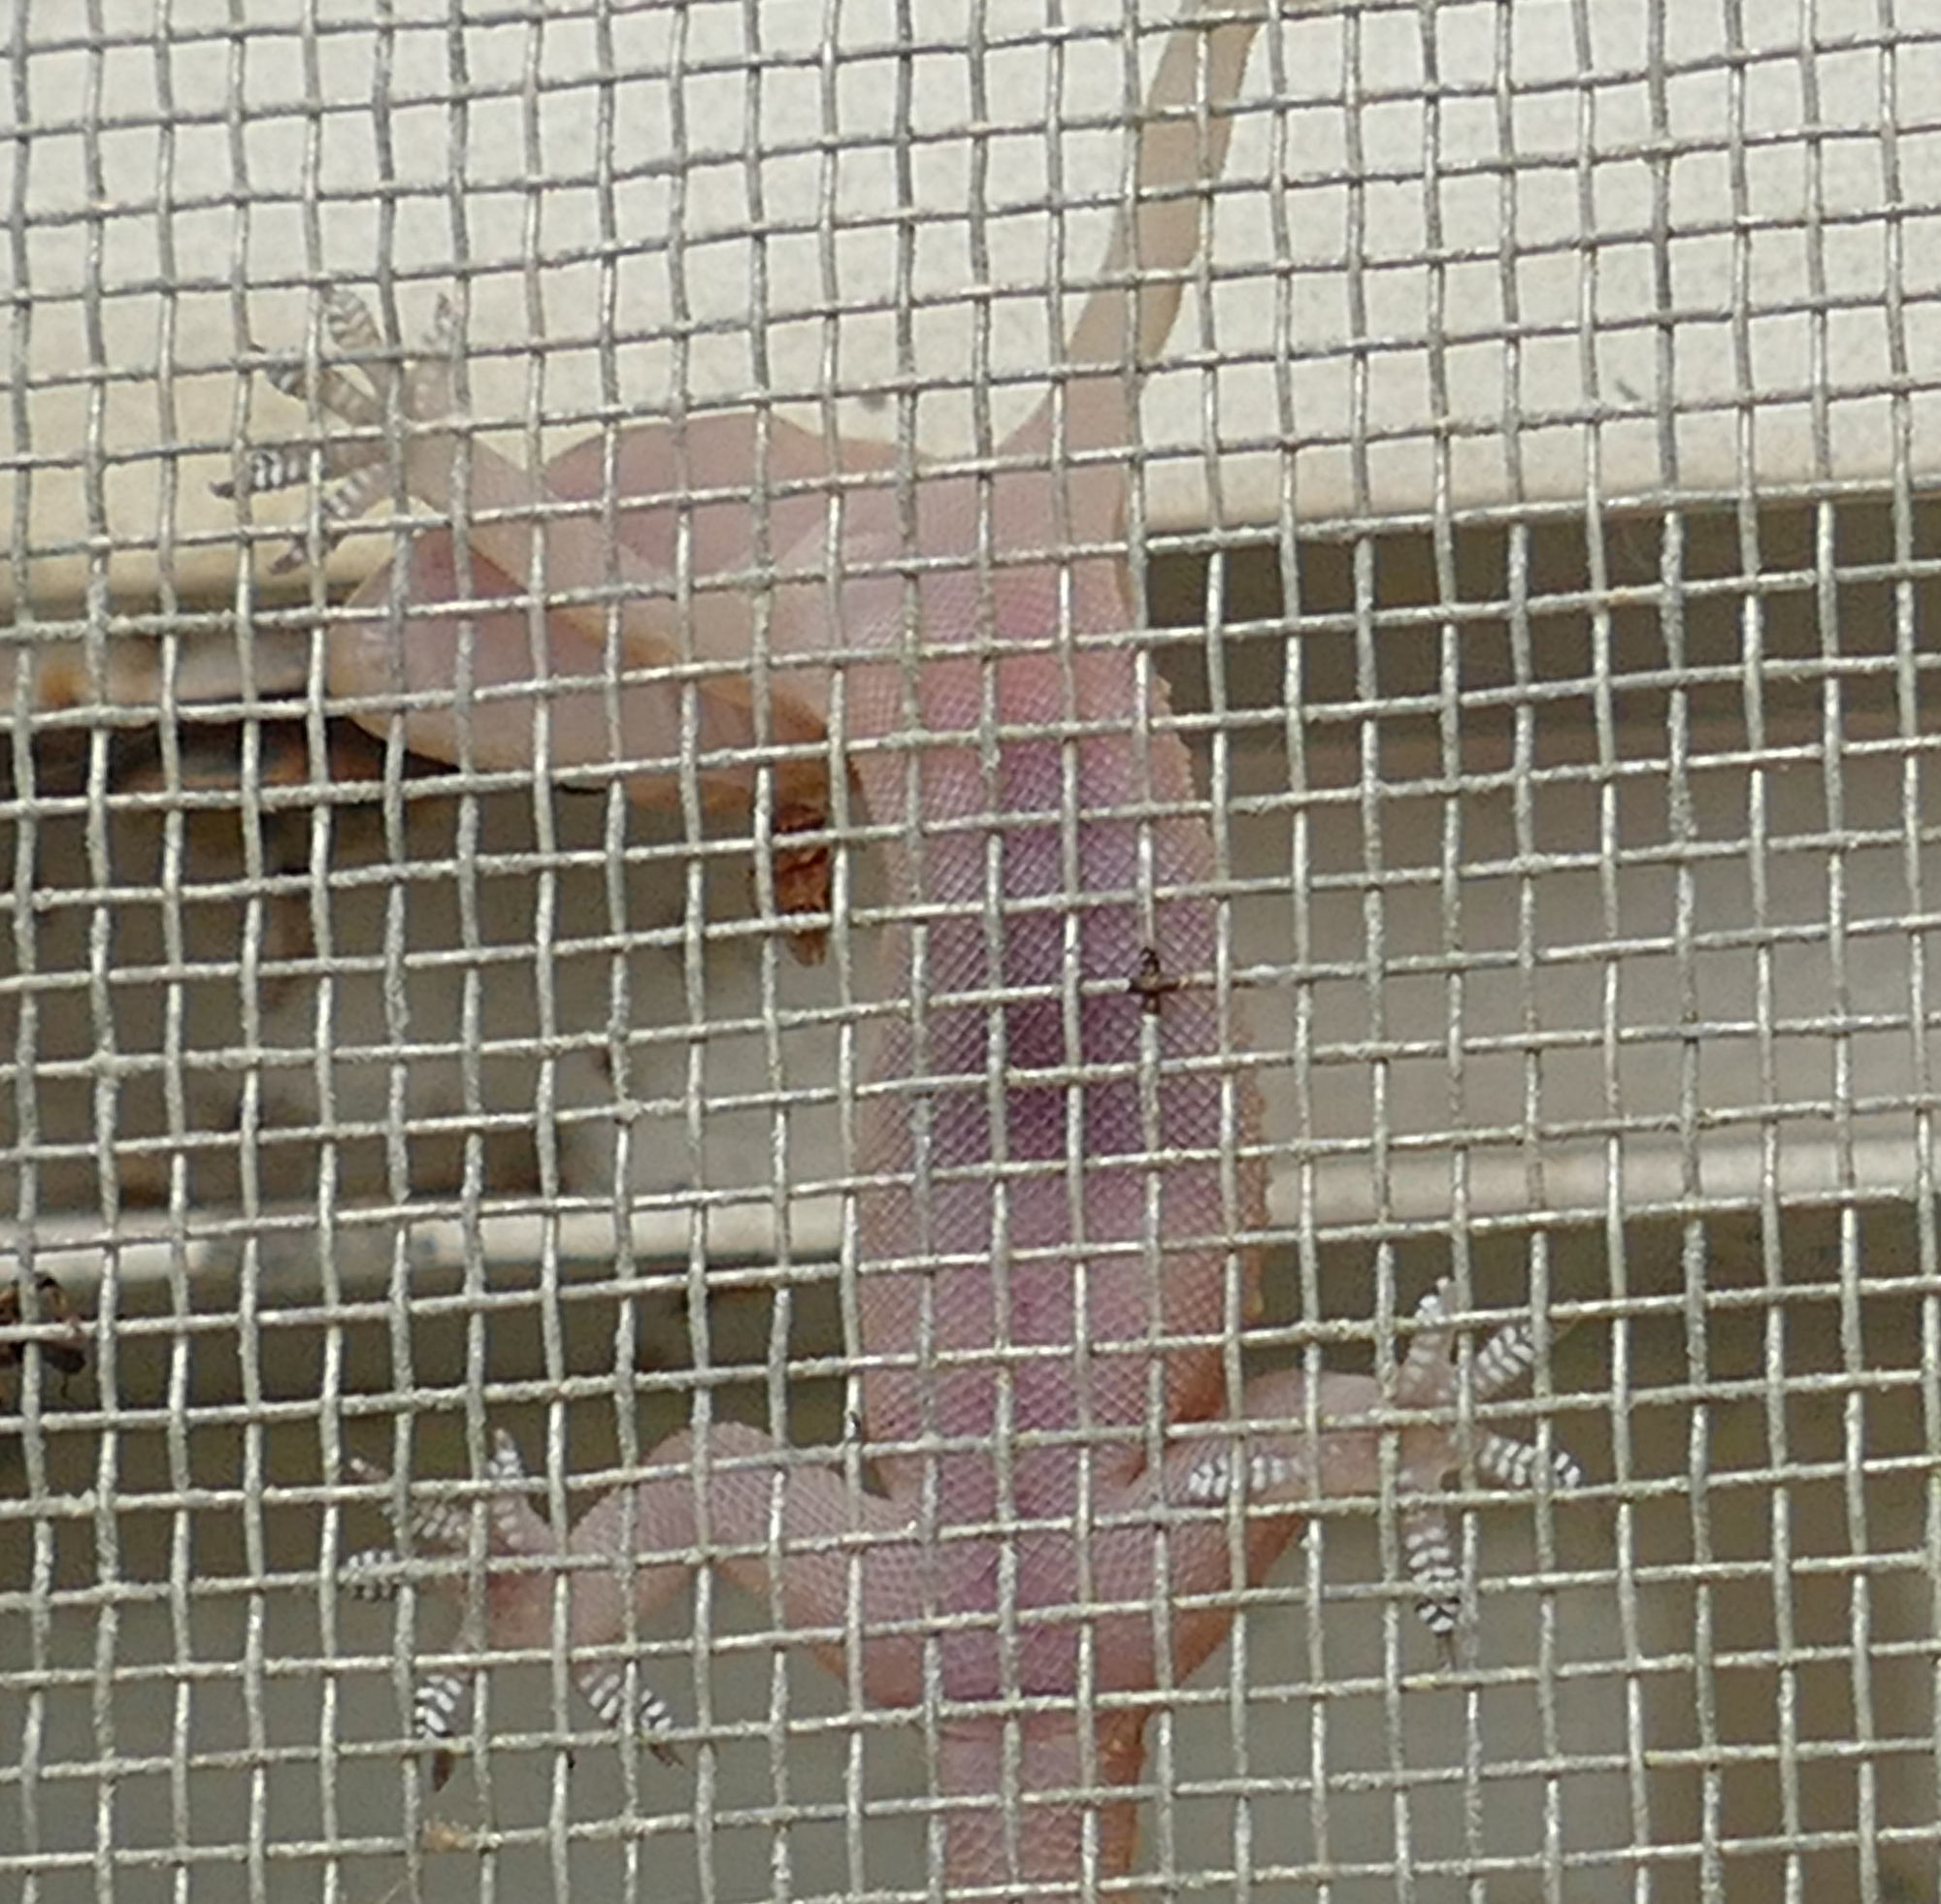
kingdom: Animalia
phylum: Chordata
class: Squamata
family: Gekkonidae
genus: Hemidactylus
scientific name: Hemidactylus turcicus
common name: Turkish gecko
